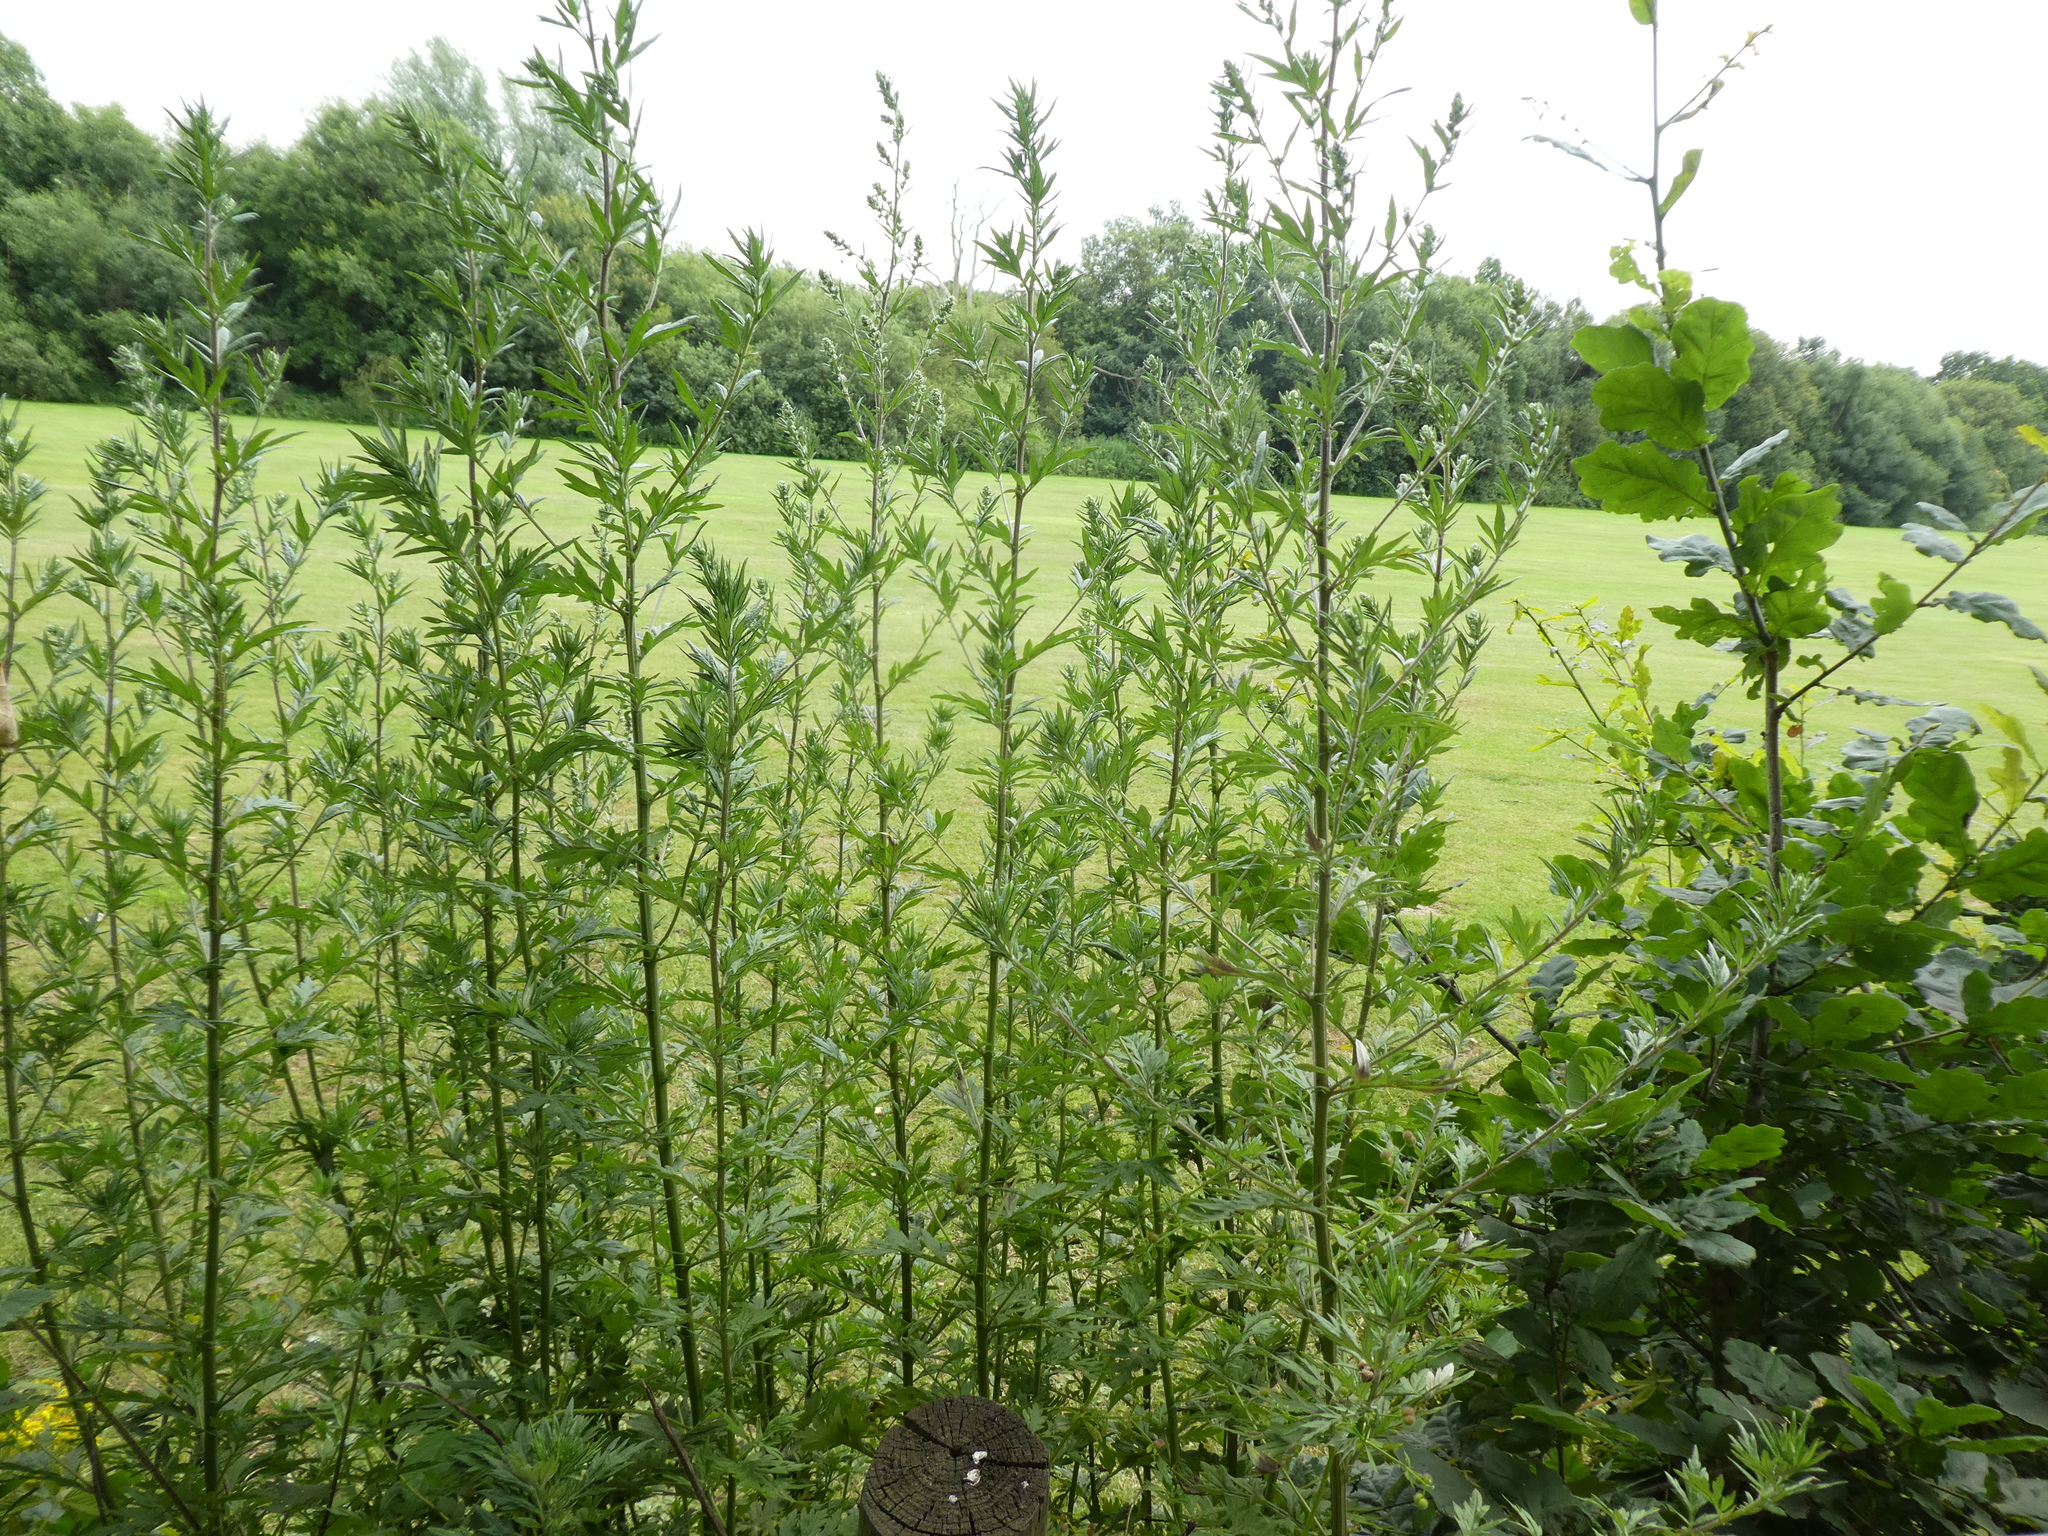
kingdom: Plantae
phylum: Tracheophyta
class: Magnoliopsida
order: Asterales
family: Asteraceae
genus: Artemisia
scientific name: Artemisia vulgaris
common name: Mugwort
